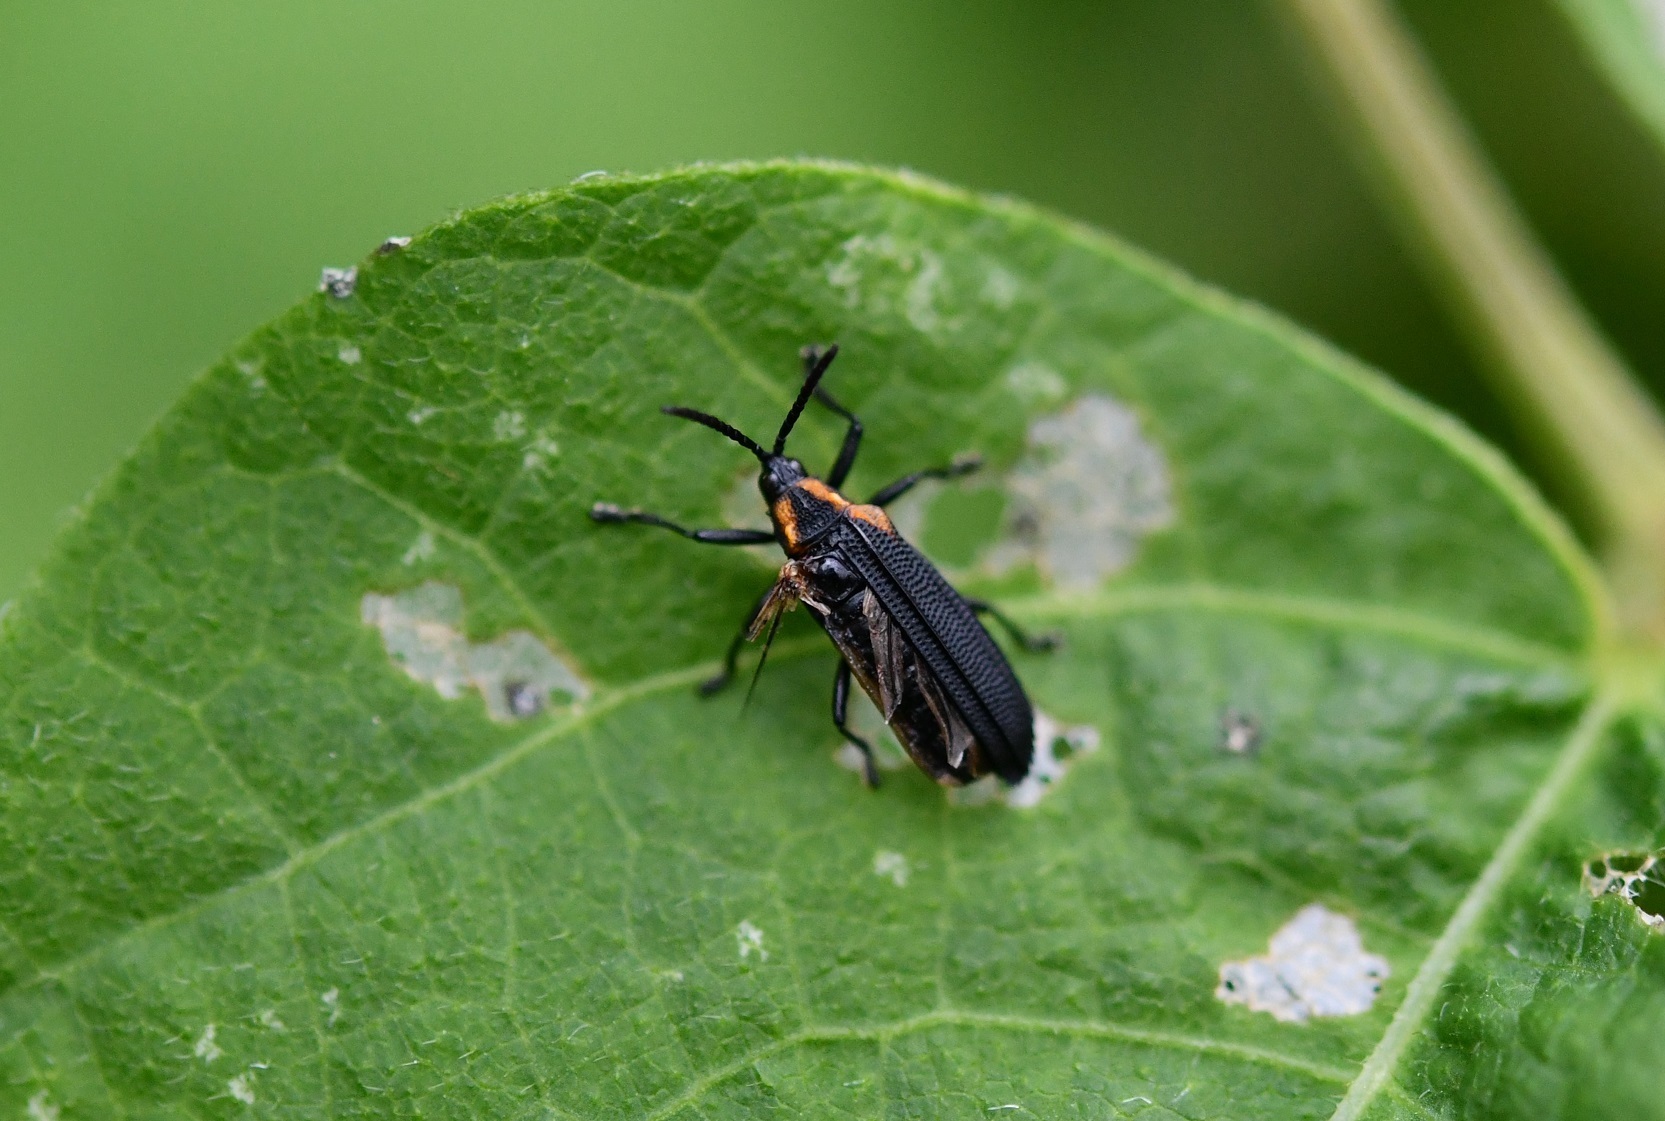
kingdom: Animalia
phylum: Arthropoda
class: Insecta
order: Coleoptera
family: Chrysomelidae
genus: Xenochalepus
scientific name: Xenochalepus maculicollis
